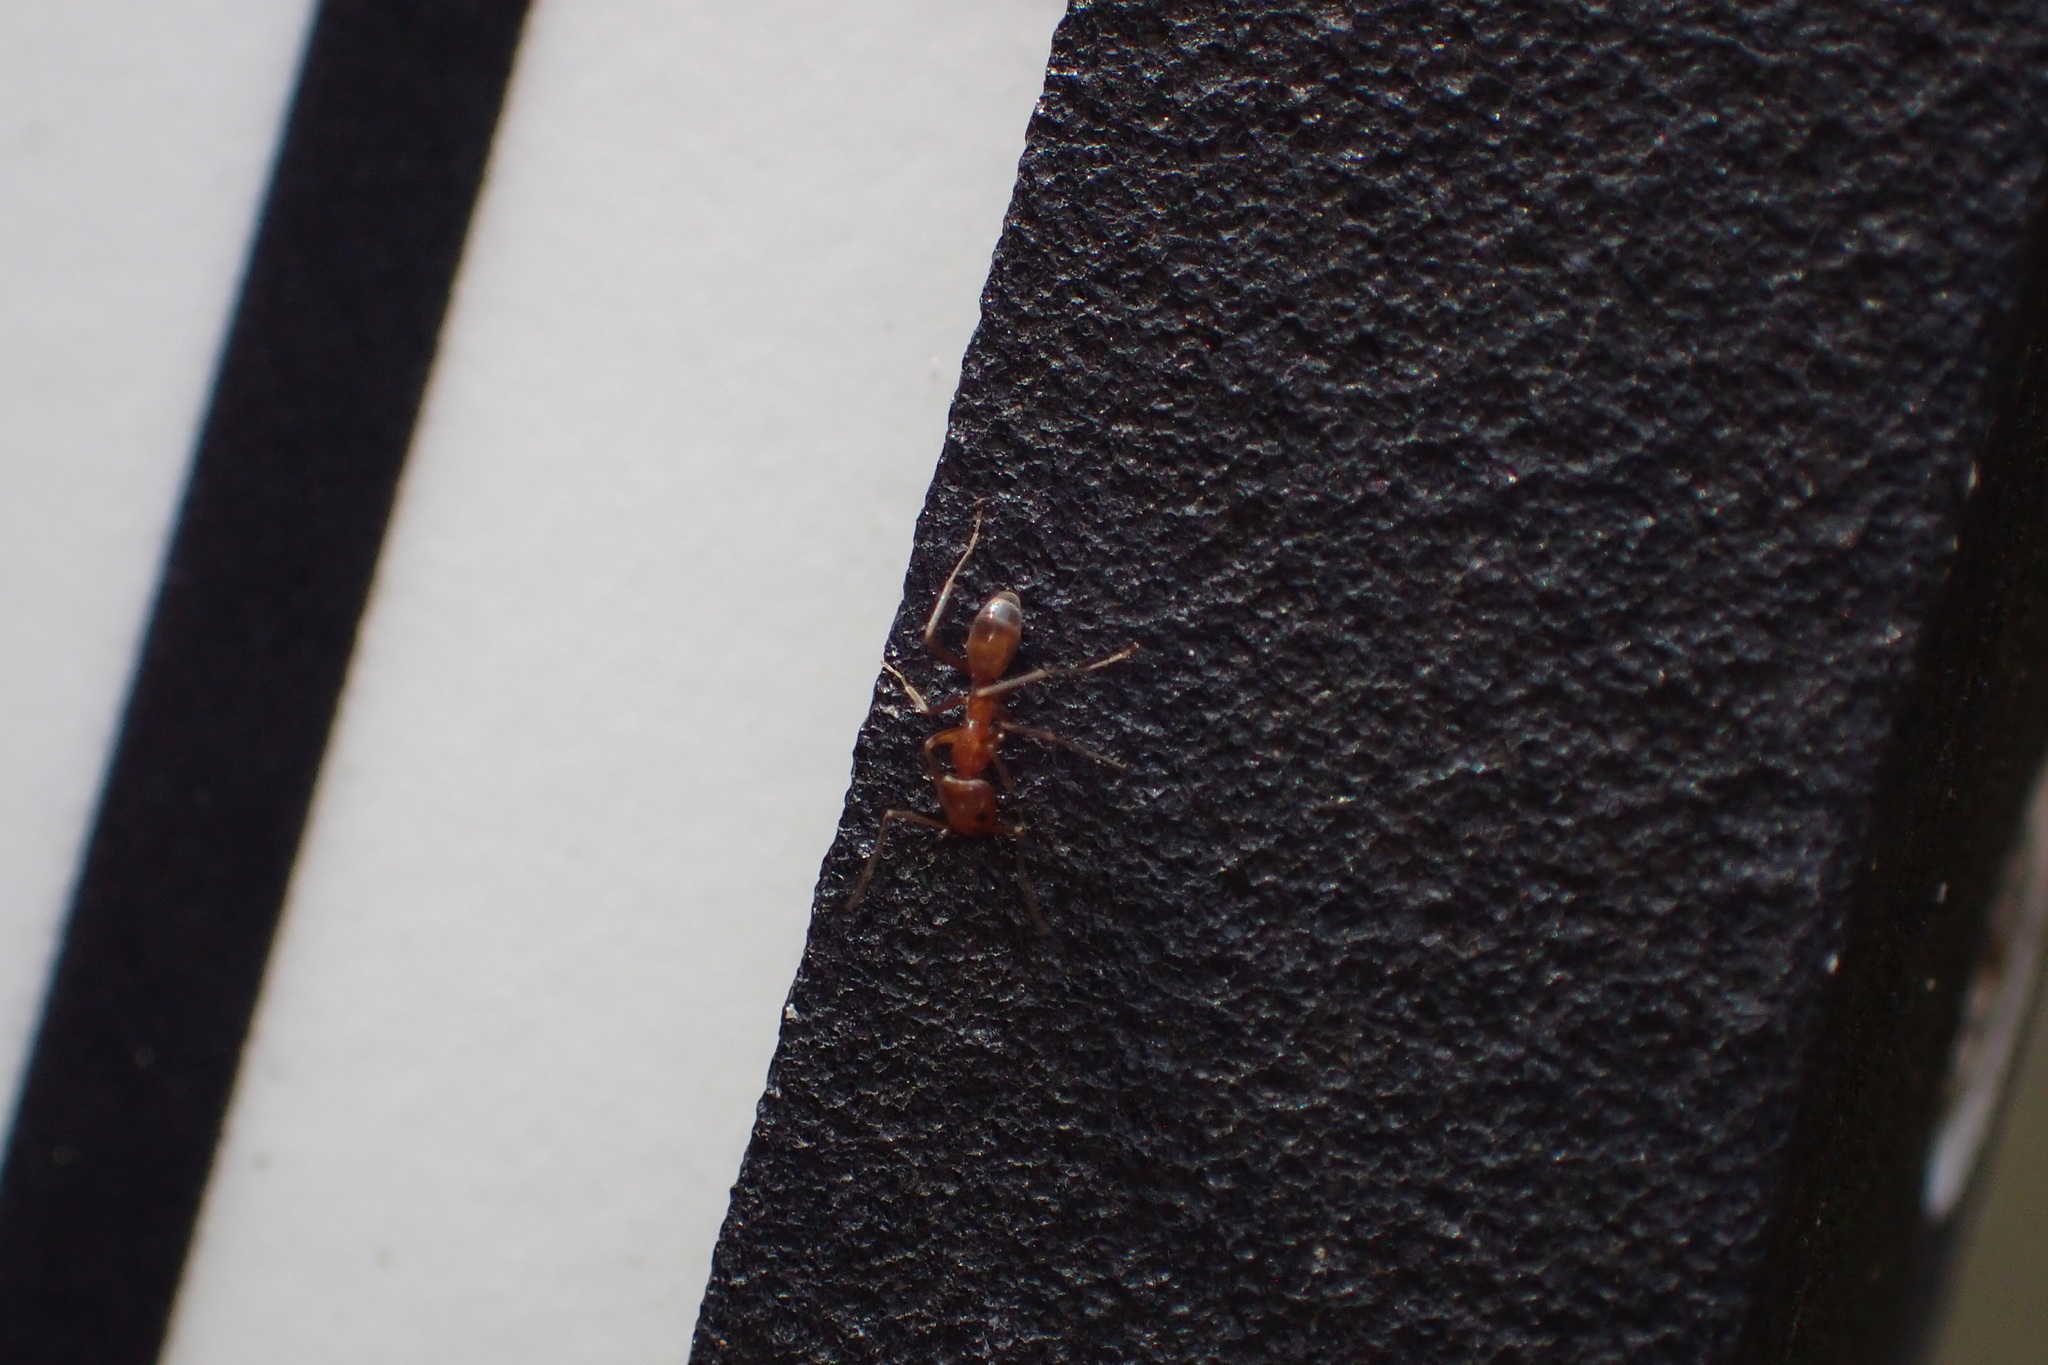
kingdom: Animalia
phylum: Arthropoda
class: Insecta
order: Hymenoptera
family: Formicidae
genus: Dorymyrmex
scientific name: Dorymyrmex bureni
